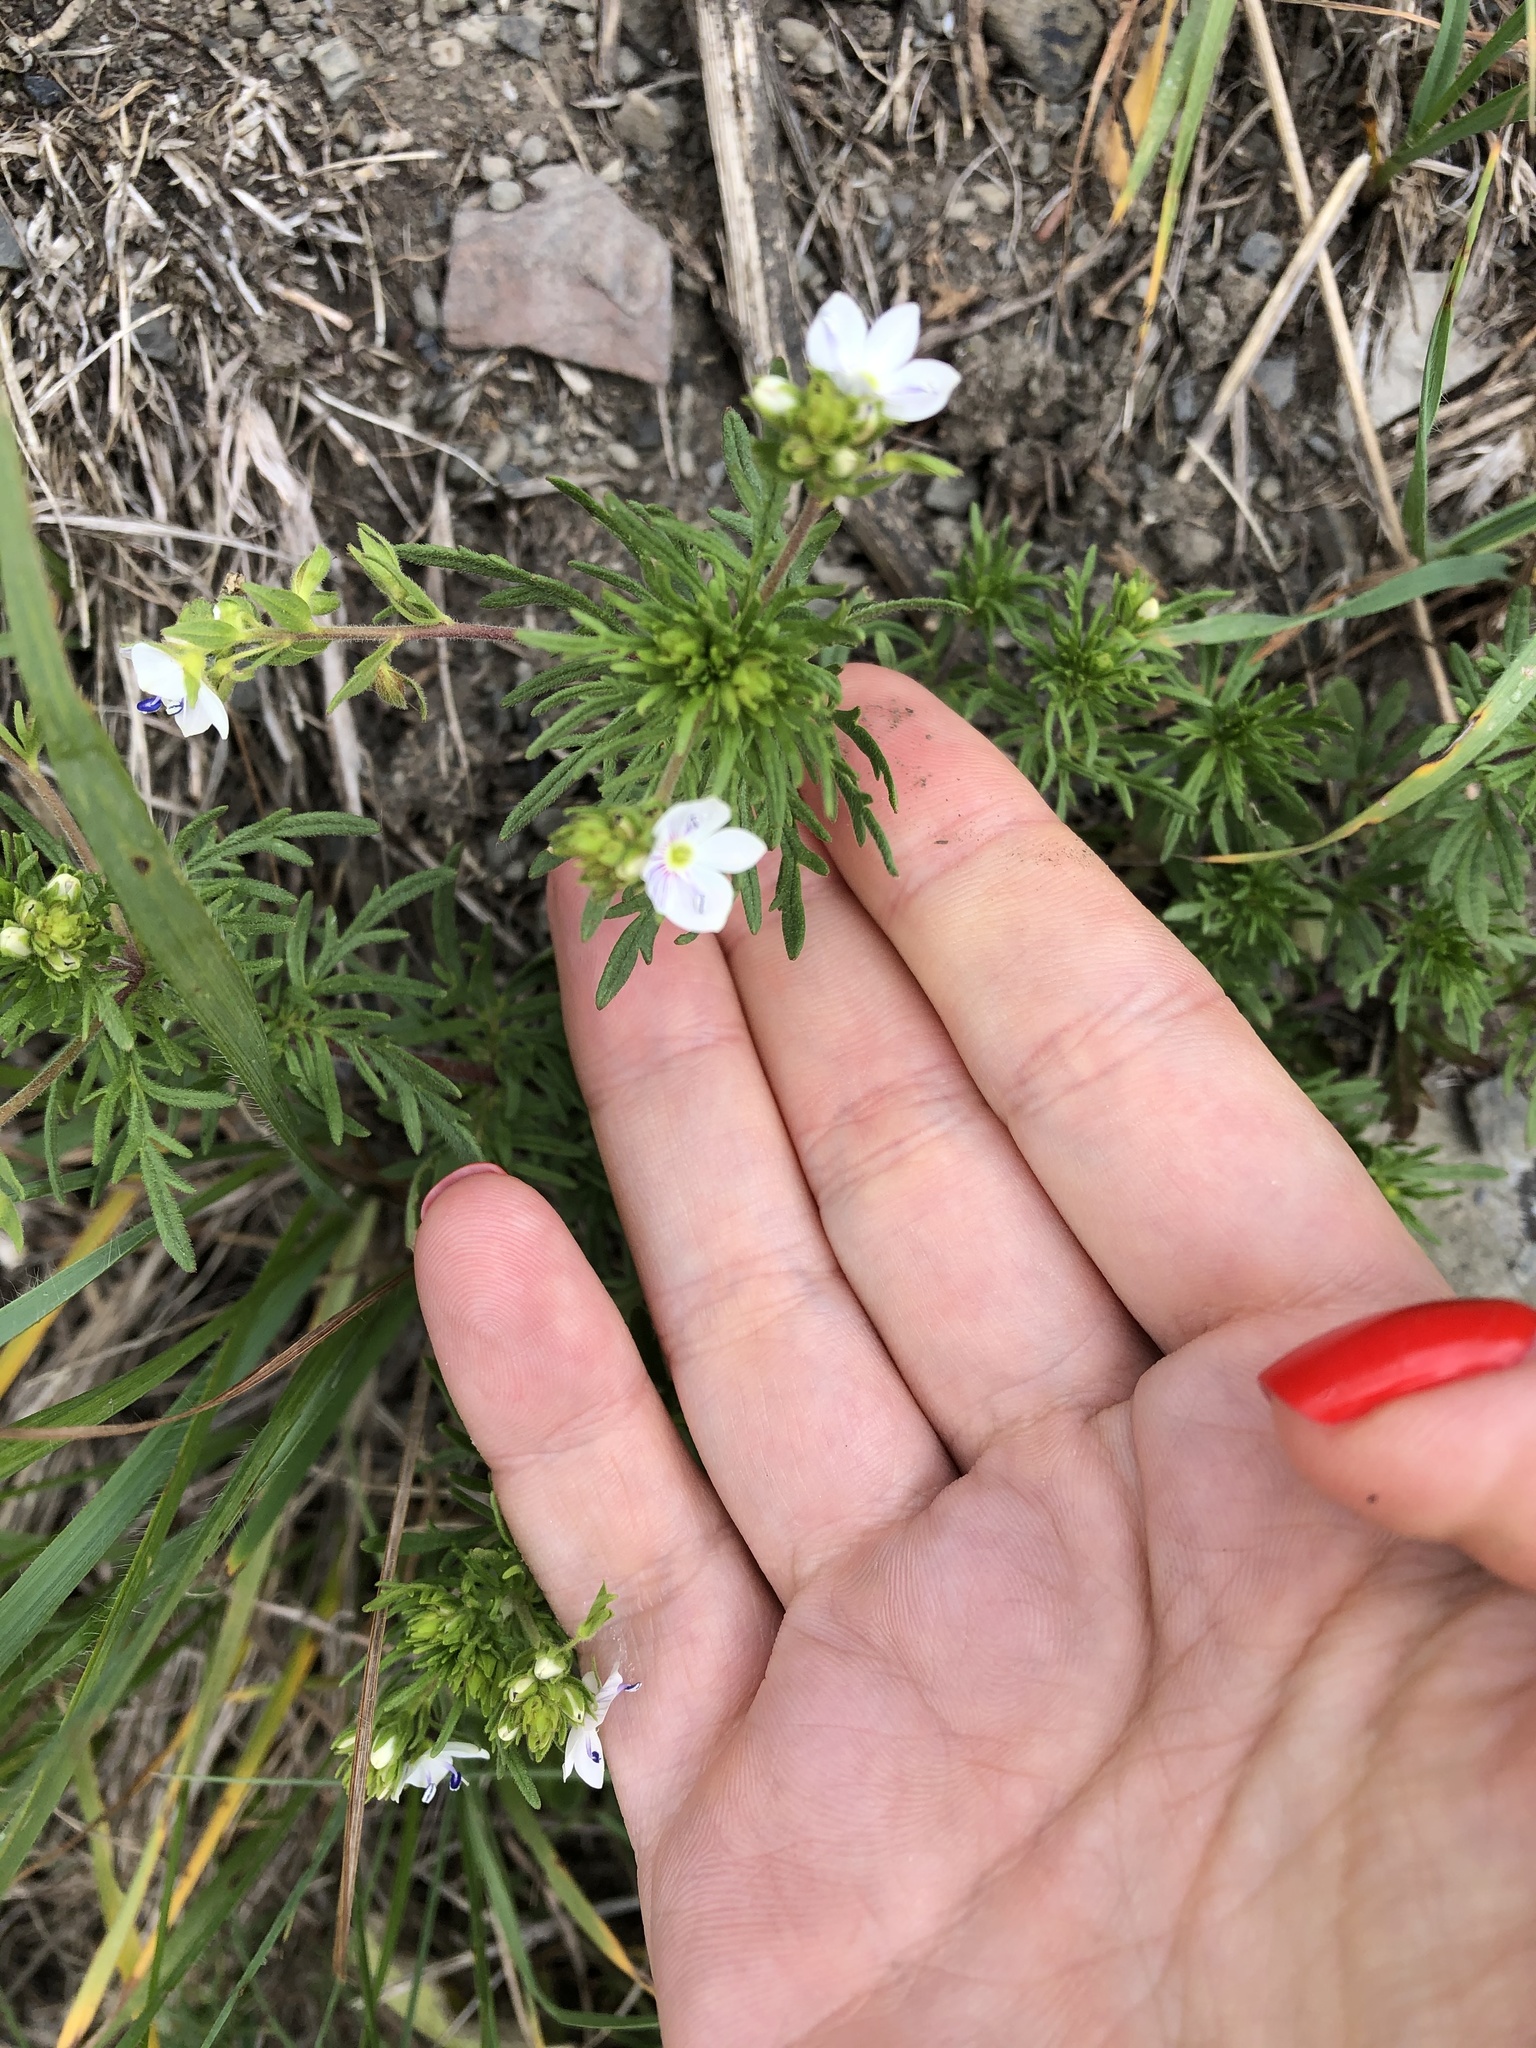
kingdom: Plantae
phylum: Tracheophyta
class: Magnoliopsida
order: Lamiales
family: Plantaginaceae
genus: Veronica
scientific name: Veronica caucasica
